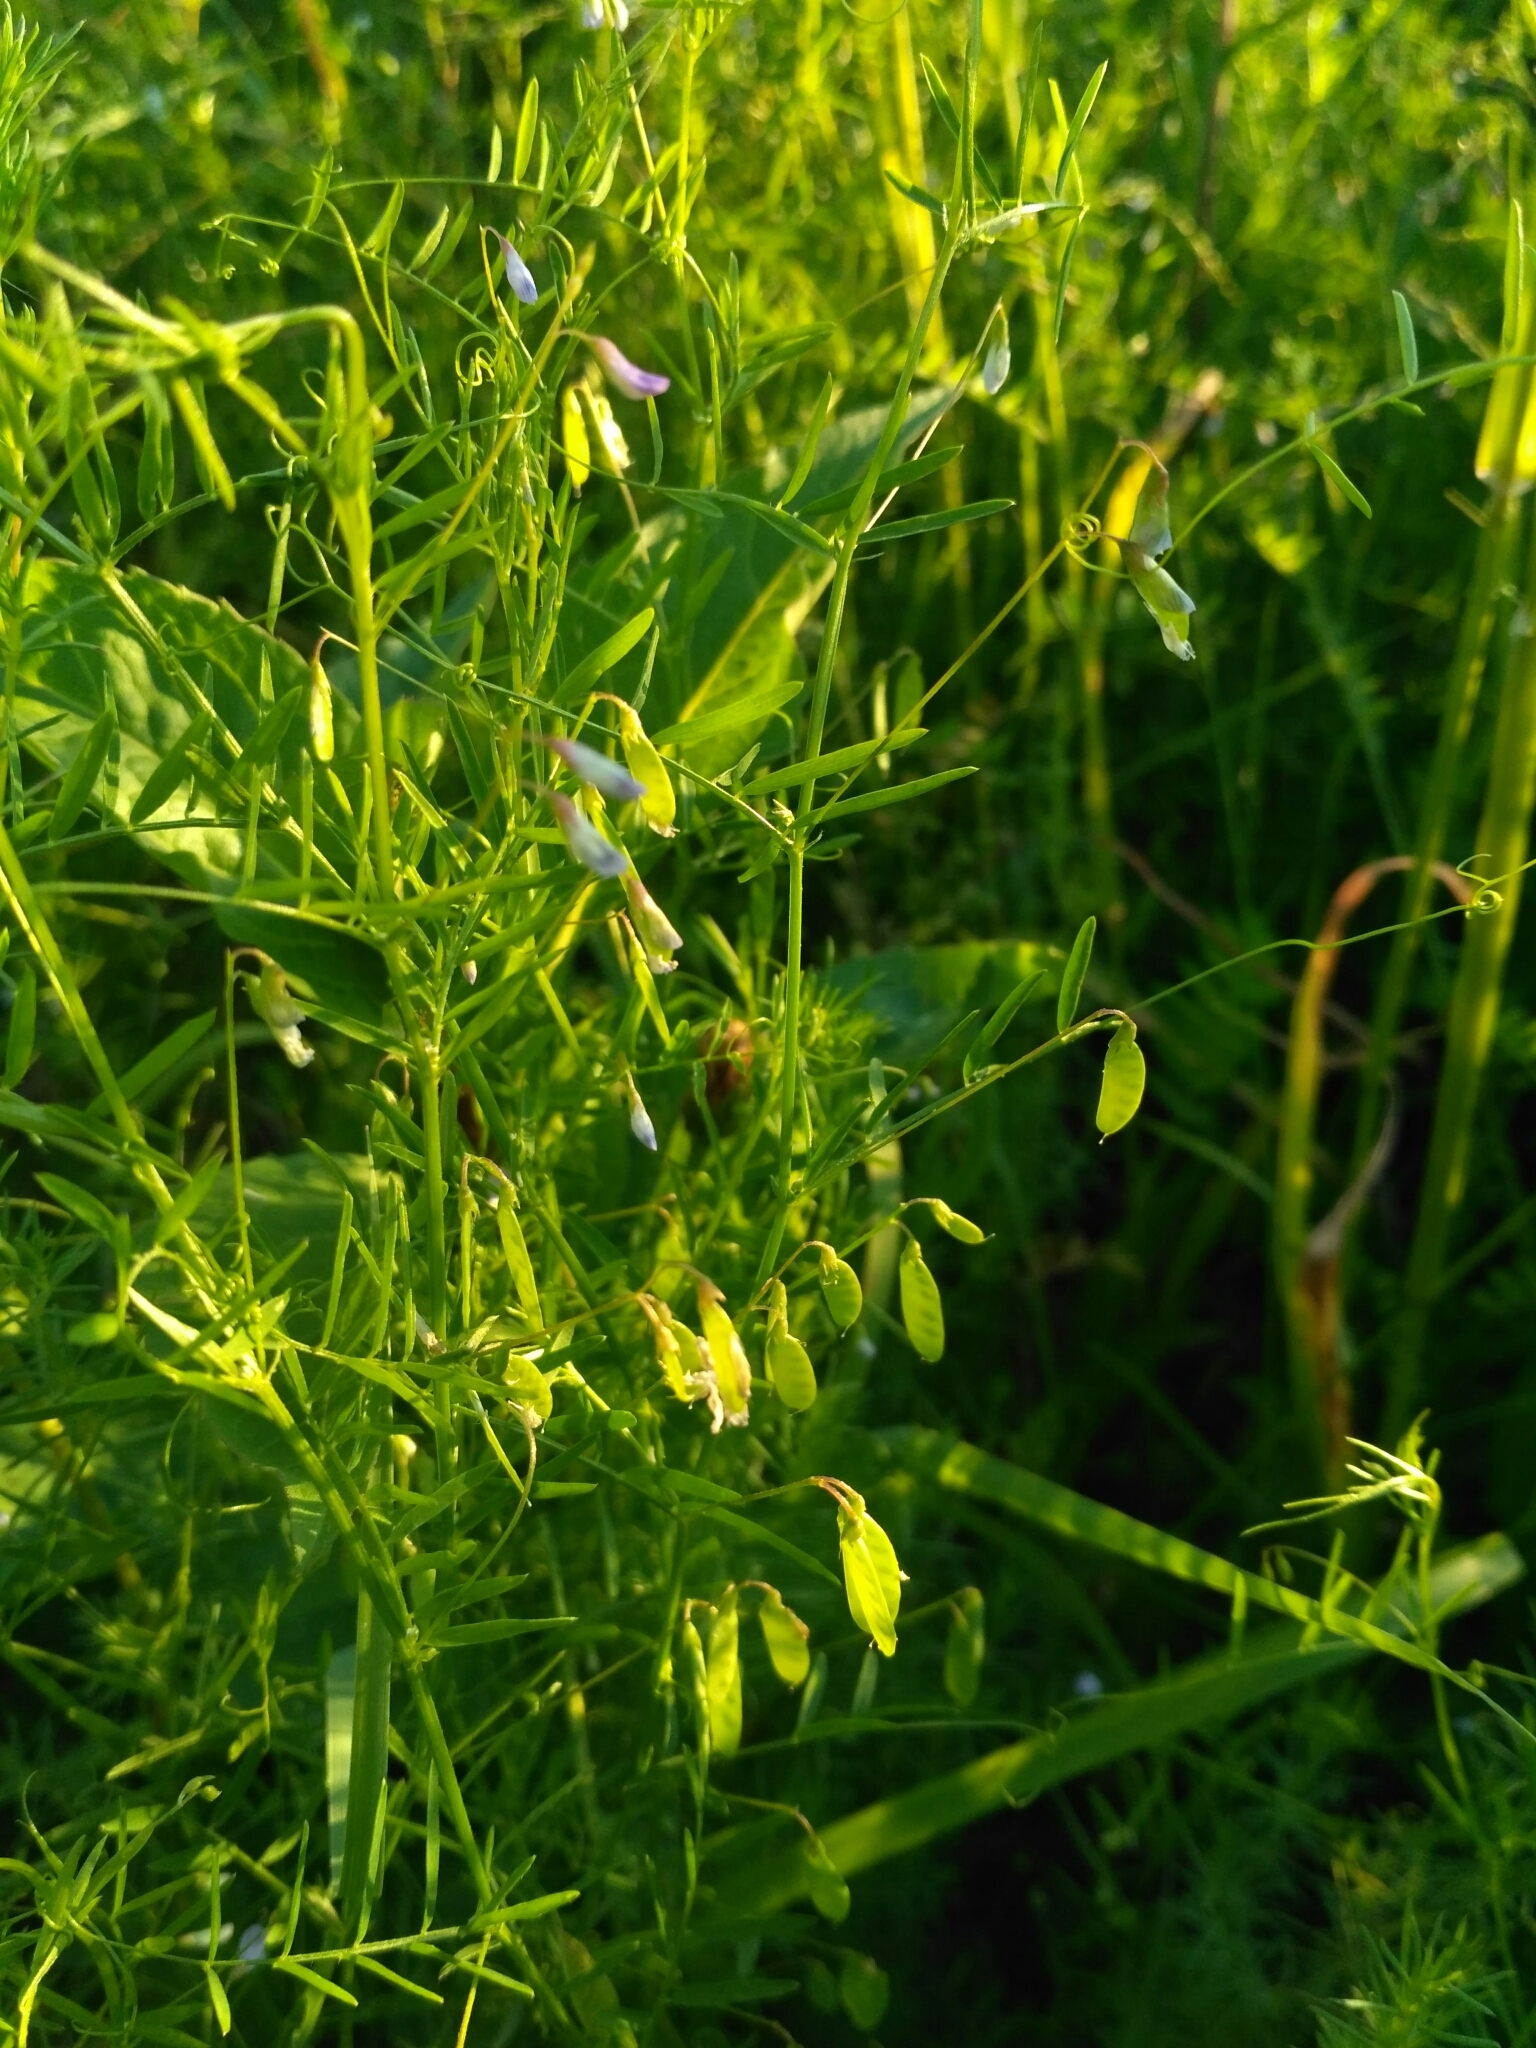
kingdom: Plantae
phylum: Tracheophyta
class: Magnoliopsida
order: Fabales
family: Fabaceae
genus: Vicia
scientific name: Vicia tetrasperma
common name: Smooth tare
